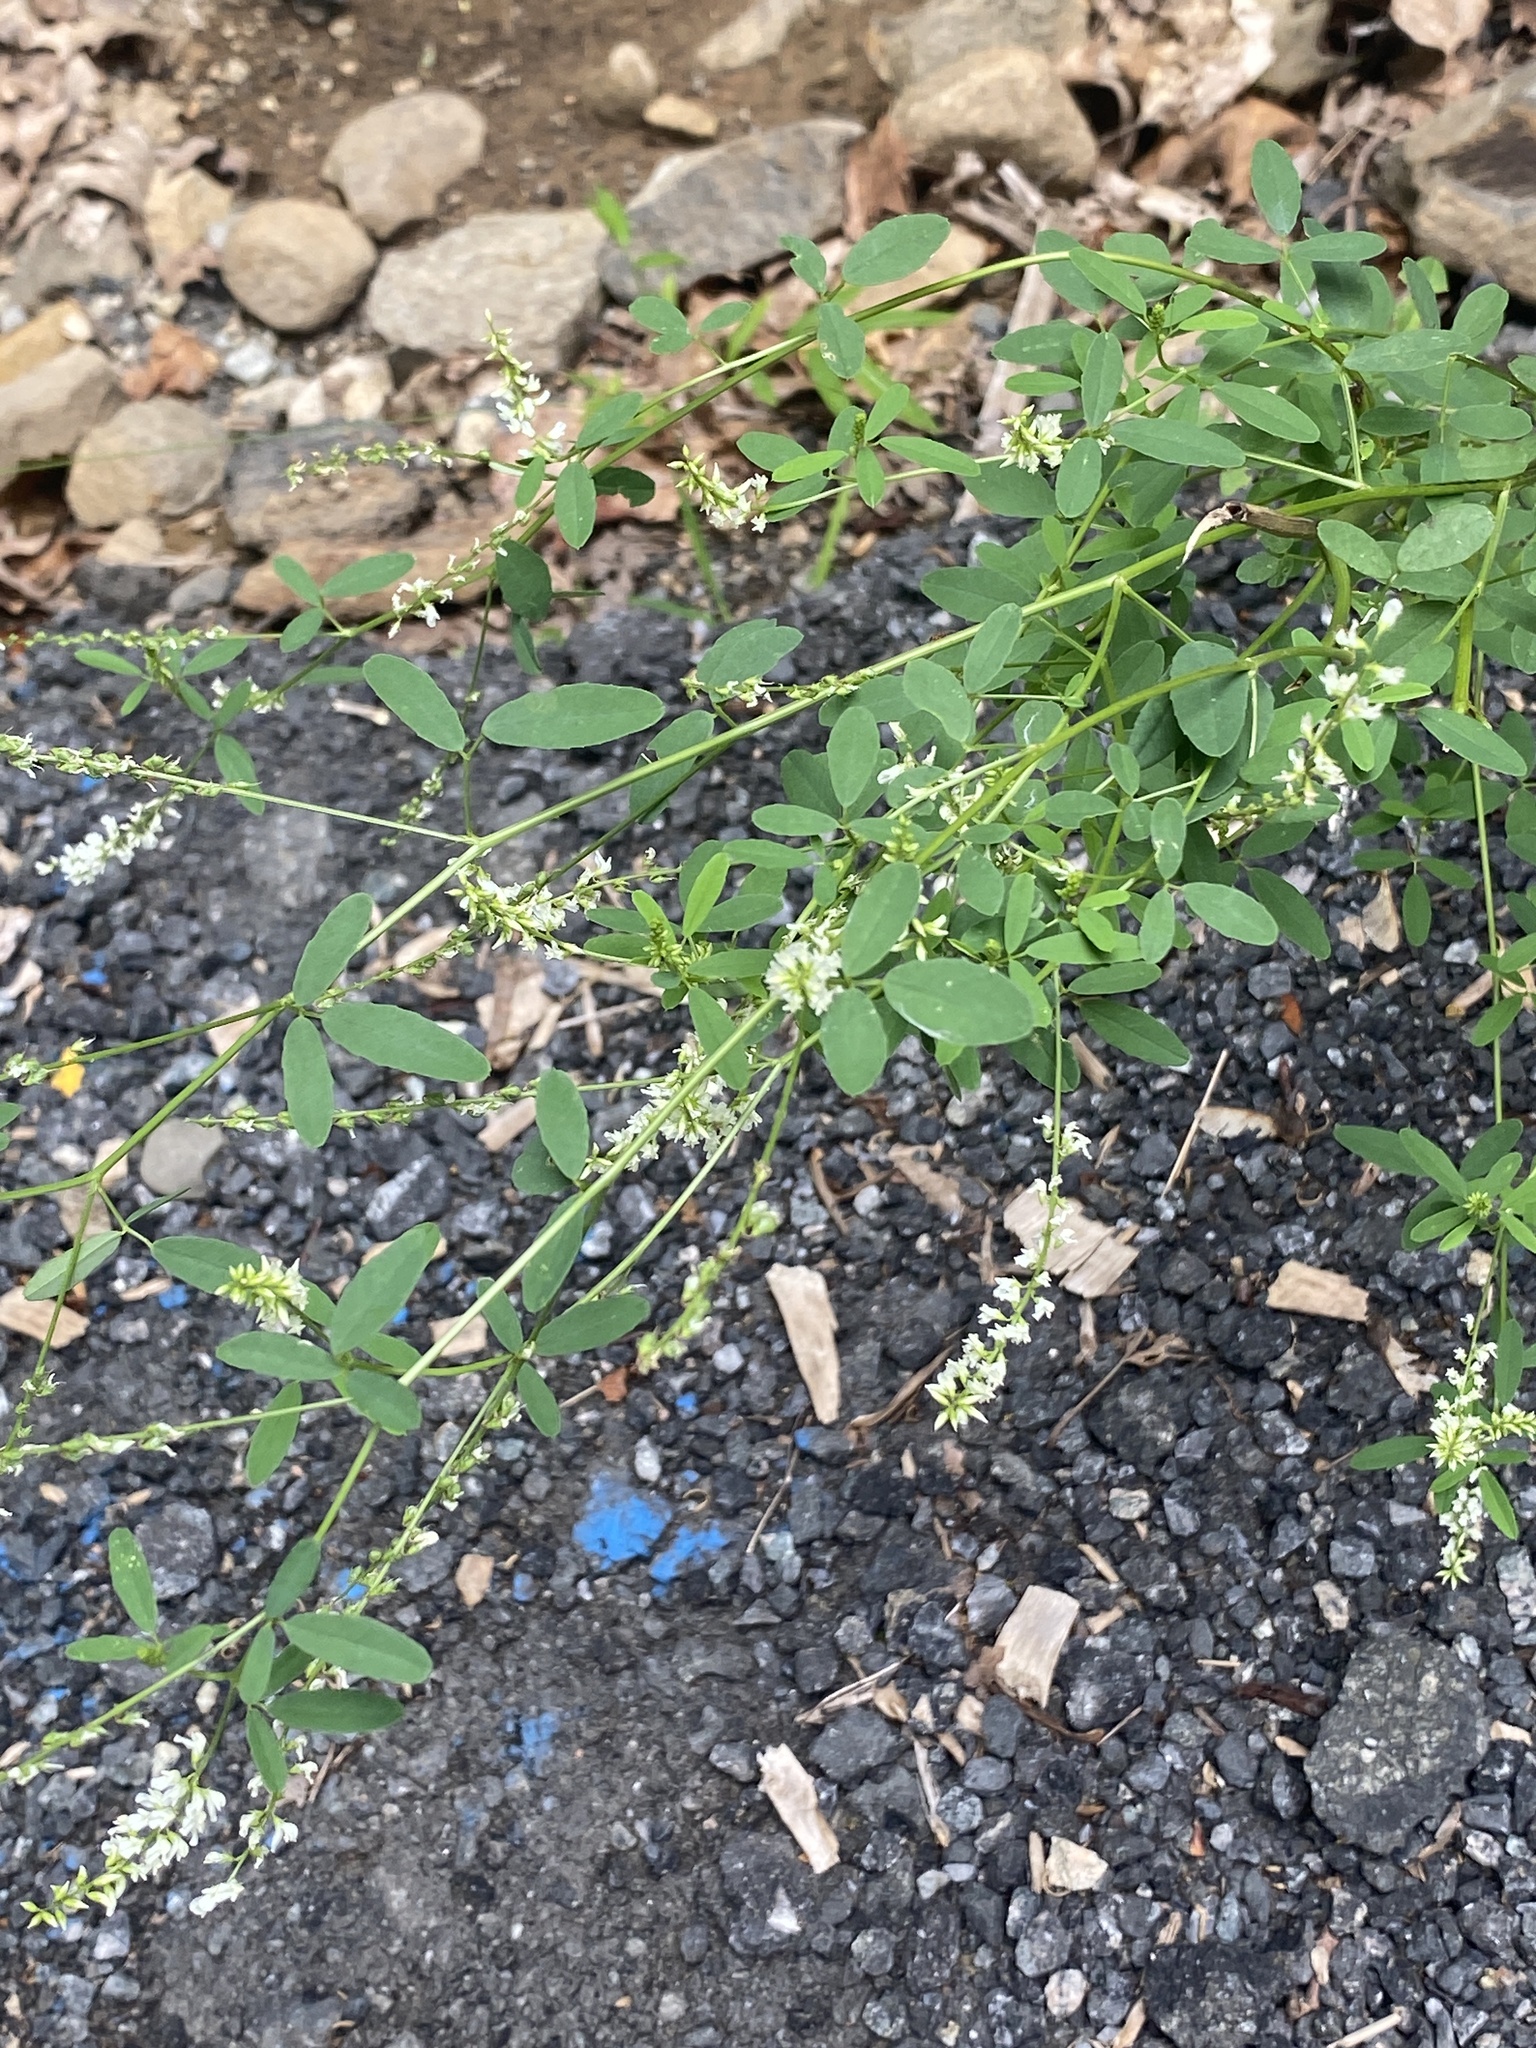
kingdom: Plantae
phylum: Tracheophyta
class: Magnoliopsida
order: Fabales
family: Fabaceae
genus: Melilotus
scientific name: Melilotus albus
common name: White melilot
